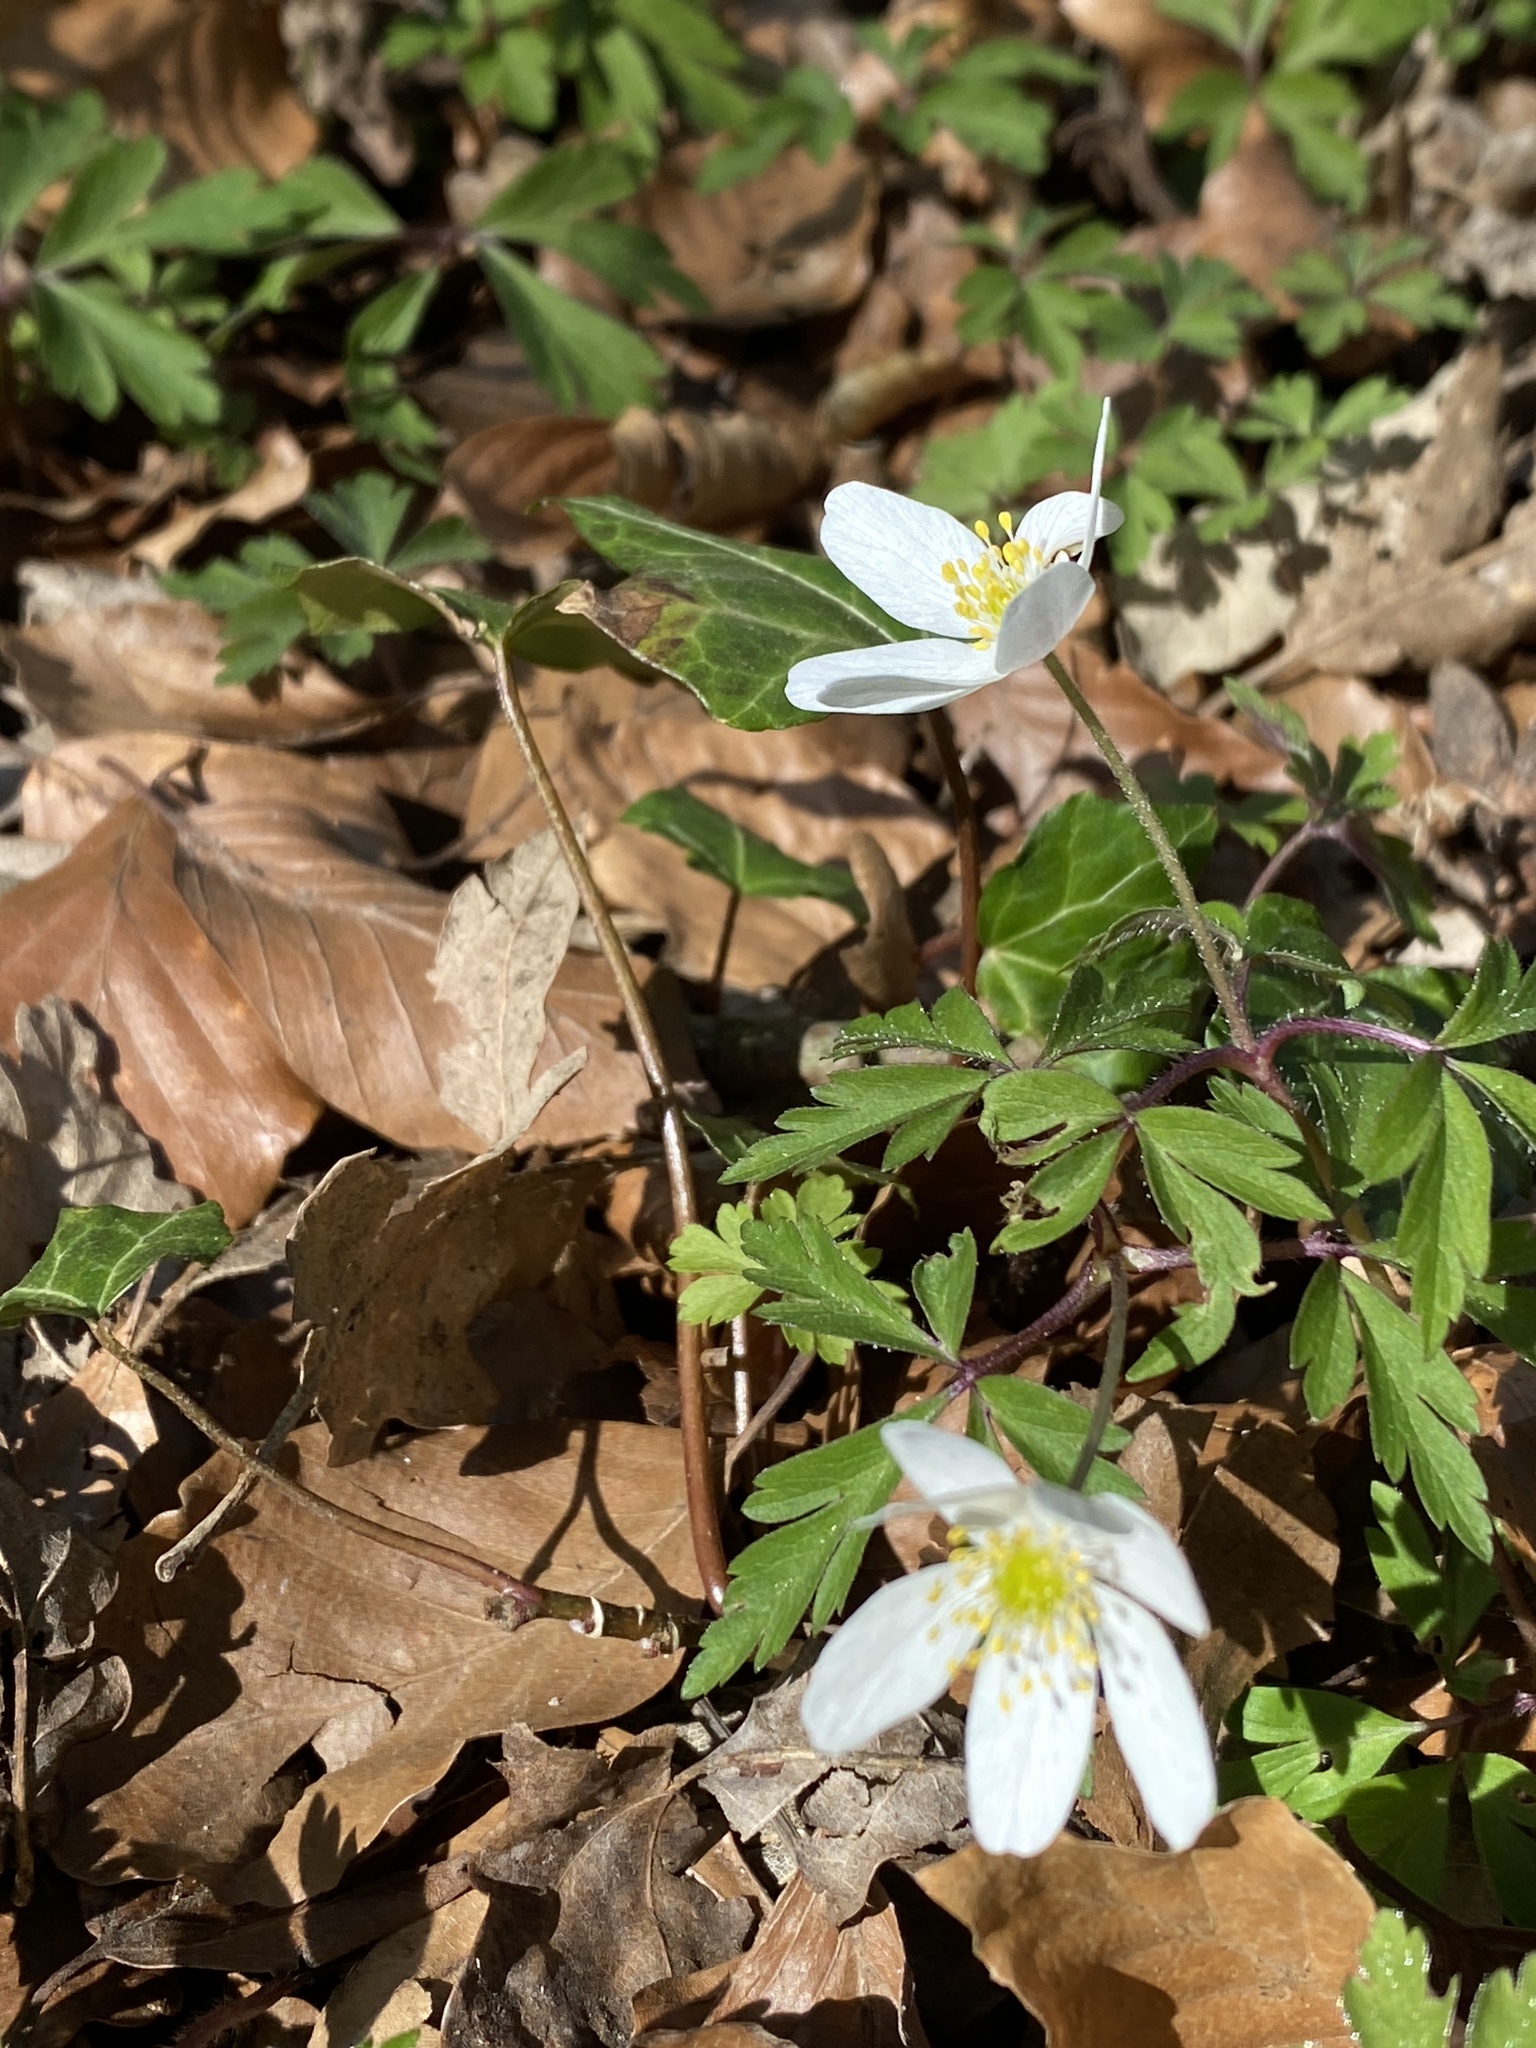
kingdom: Plantae
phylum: Tracheophyta
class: Magnoliopsida
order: Ranunculales
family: Ranunculaceae
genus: Anemone
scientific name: Anemone nemorosa
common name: Wood anemone
